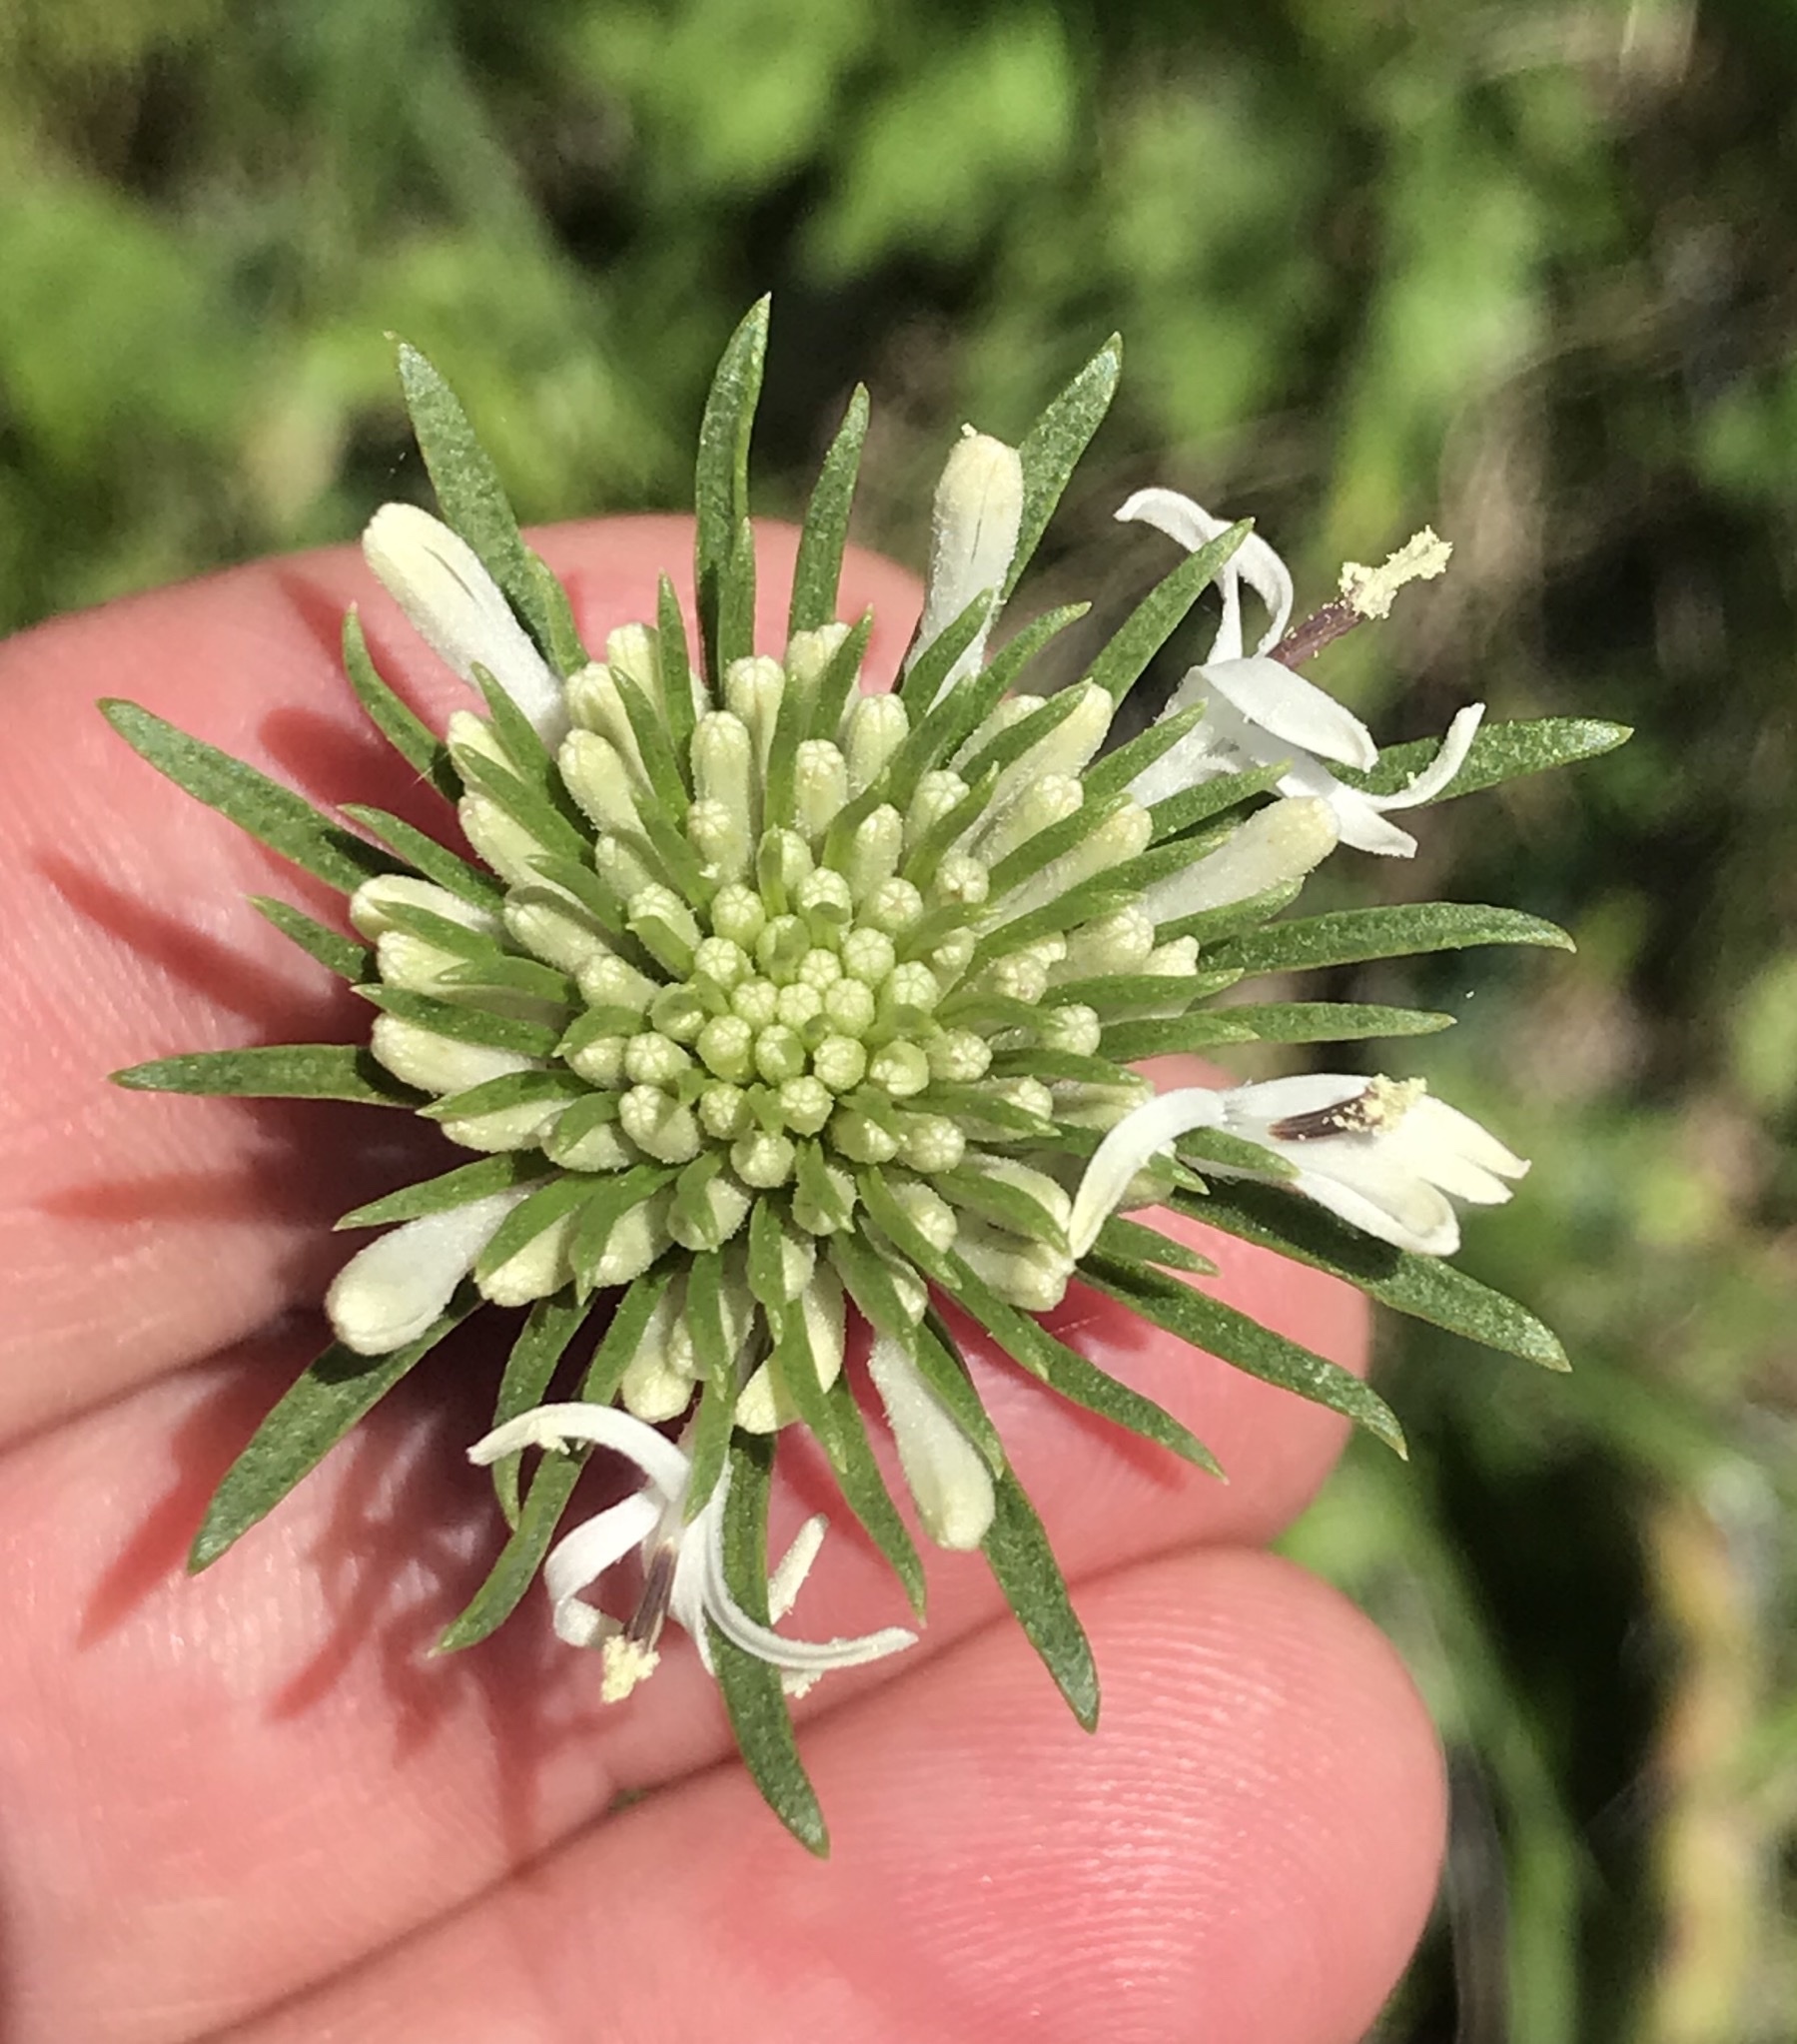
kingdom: Plantae
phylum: Tracheophyta
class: Magnoliopsida
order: Asterales
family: Asteraceae
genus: Marshallia
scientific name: Marshallia caespitosa
